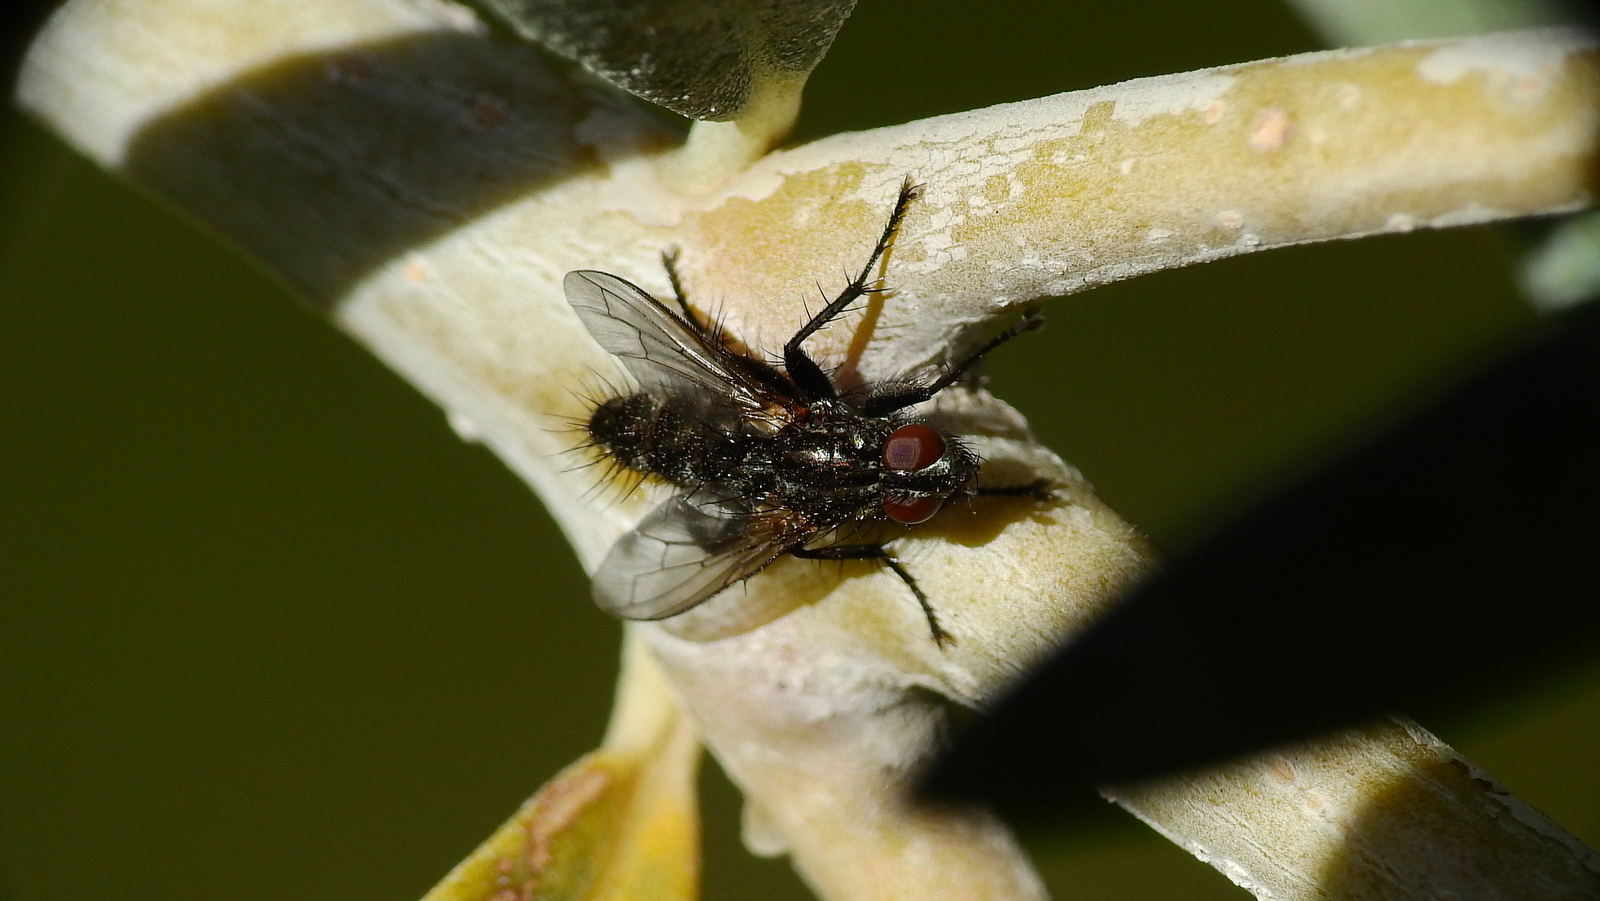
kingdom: Animalia
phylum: Arthropoda
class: Insecta
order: Diptera
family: Calliphoridae
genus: Stevenia
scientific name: Stevenia deceptoria
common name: Grizzled woodlouse-fly
